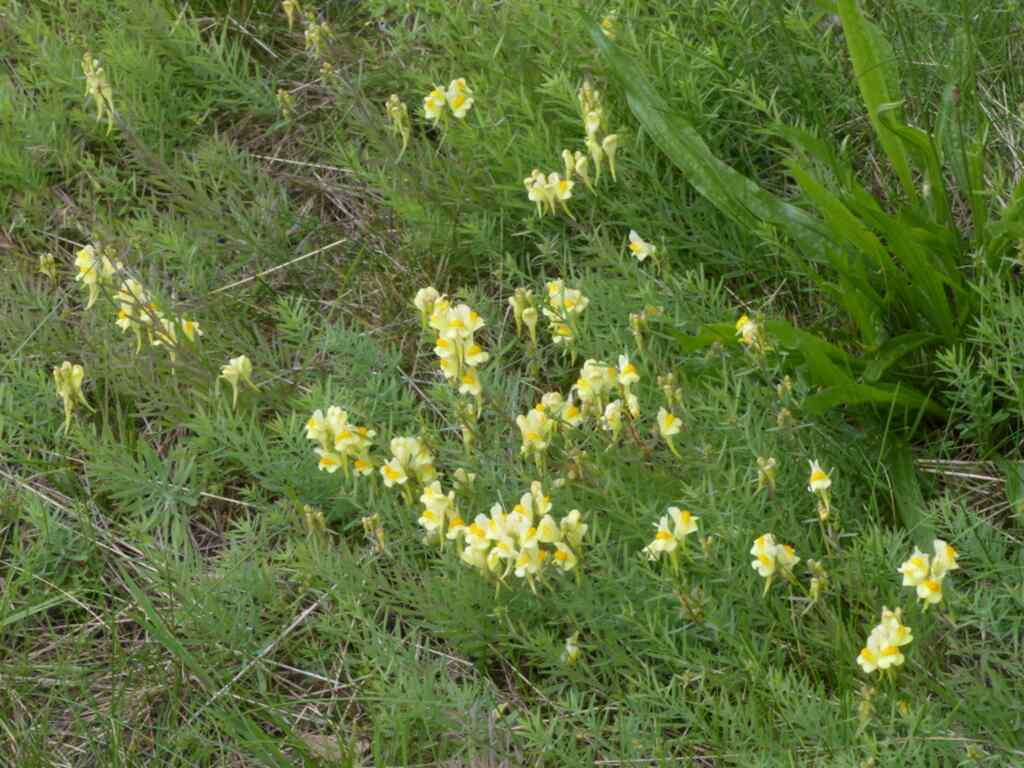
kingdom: Plantae
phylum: Tracheophyta
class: Magnoliopsida
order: Lamiales
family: Plantaginaceae
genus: Linaria
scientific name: Linaria vulgaris
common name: Butter and eggs
